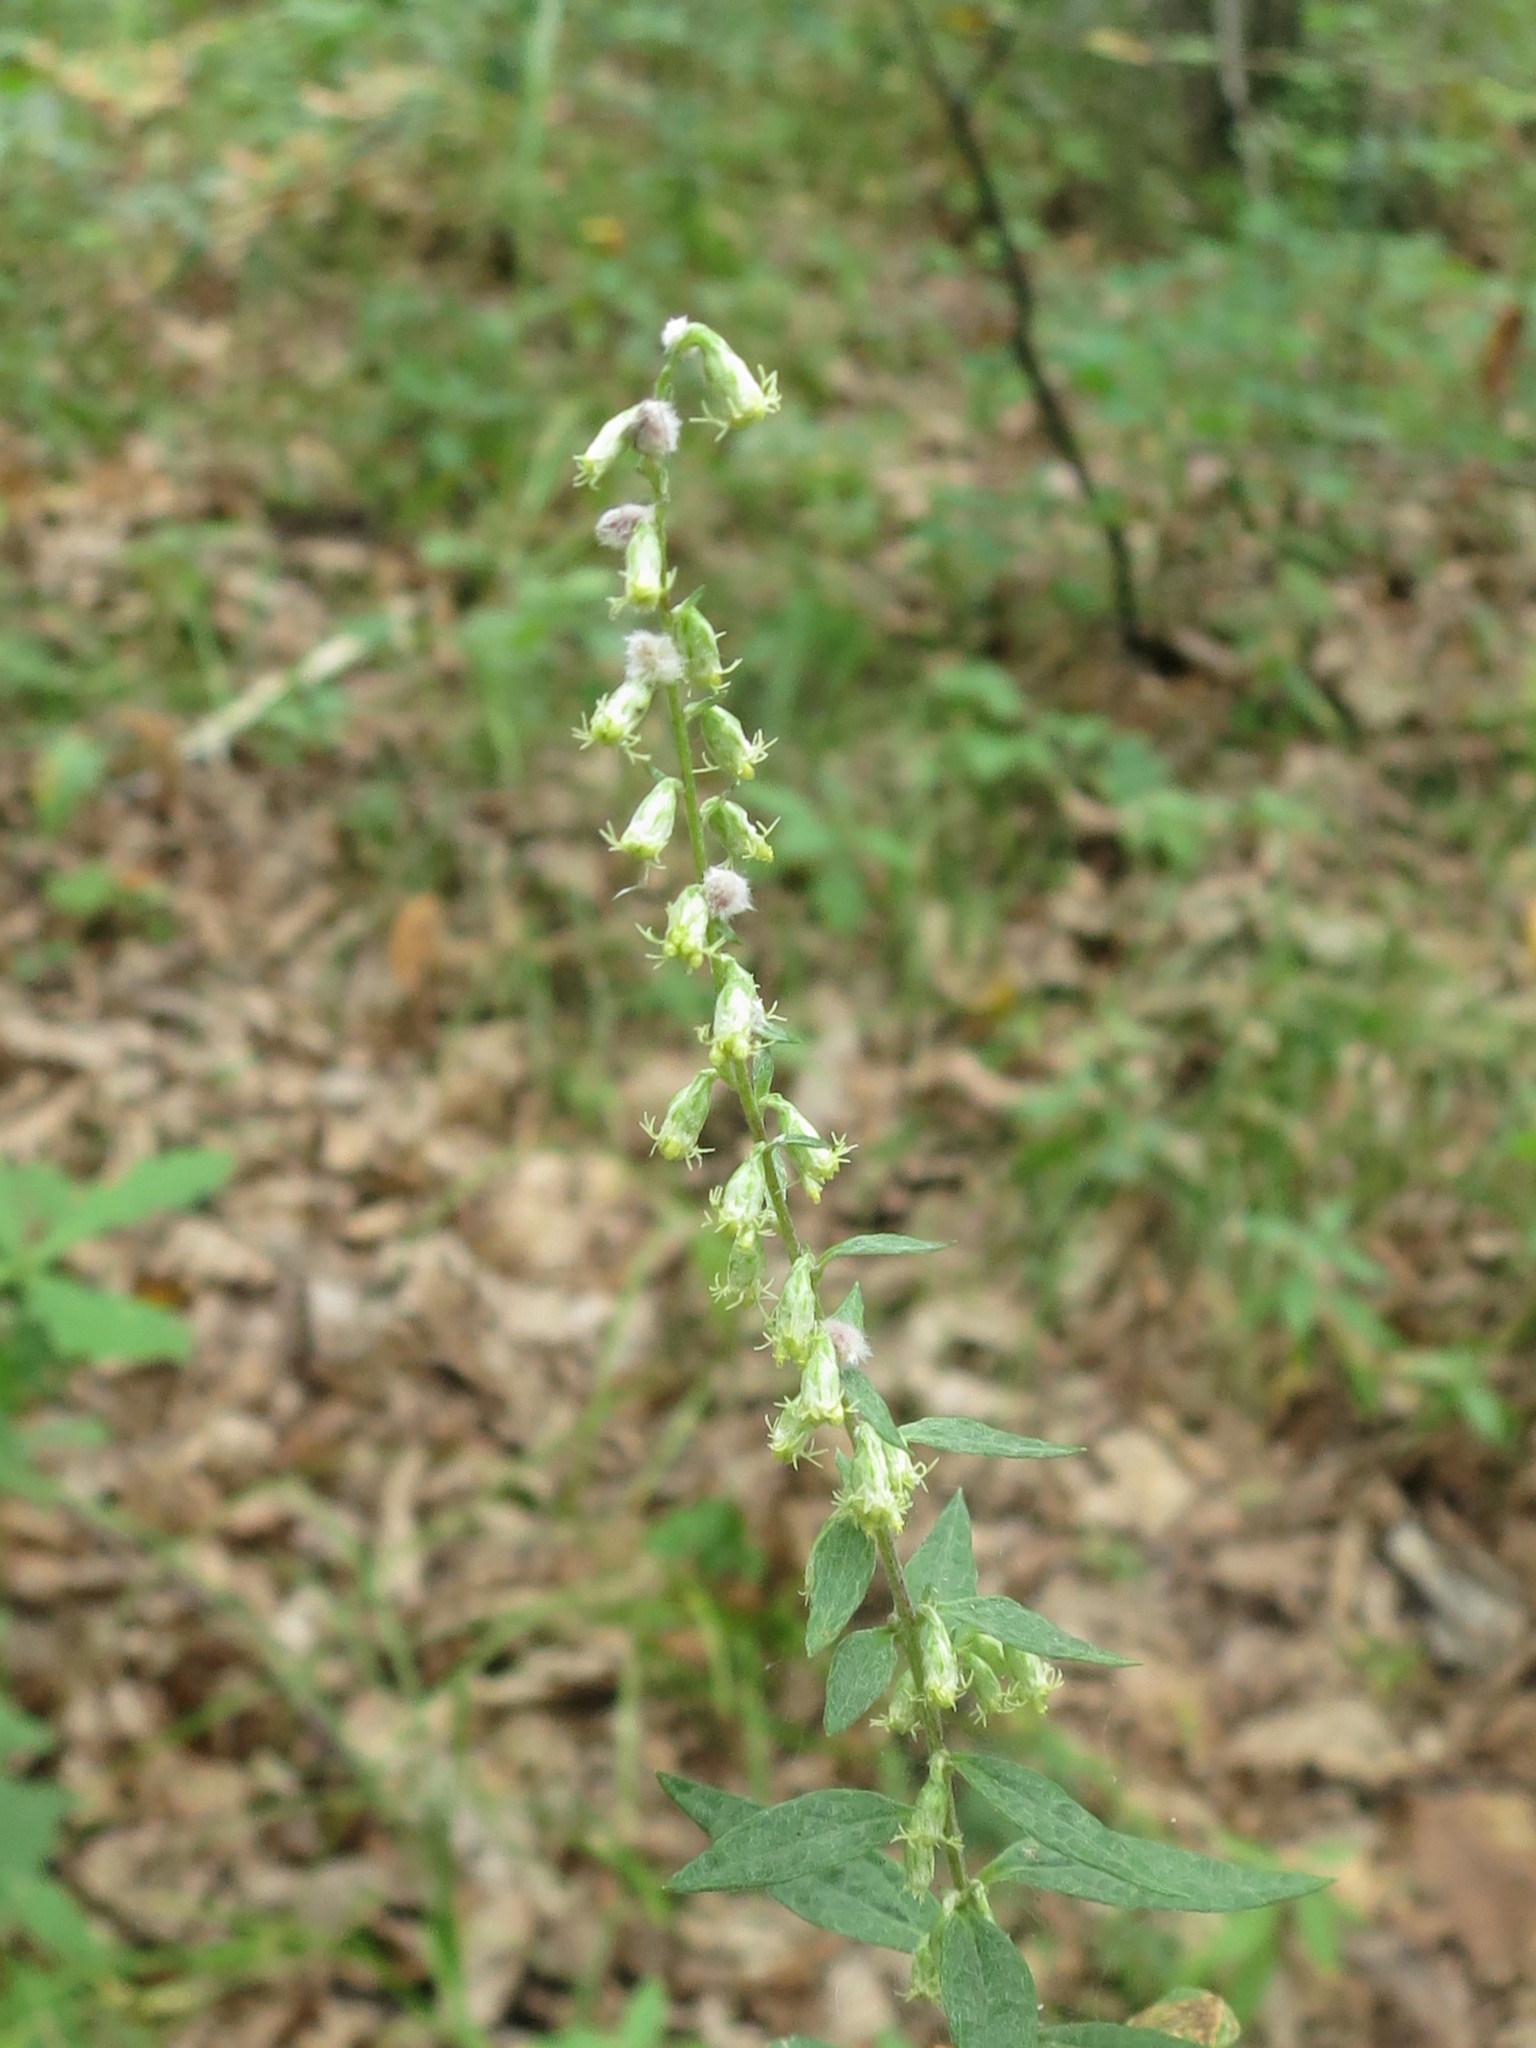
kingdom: Plantae
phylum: Tracheophyta
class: Magnoliopsida
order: Asterales
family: Asteraceae
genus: Artemisia
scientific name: Artemisia stolonifera
